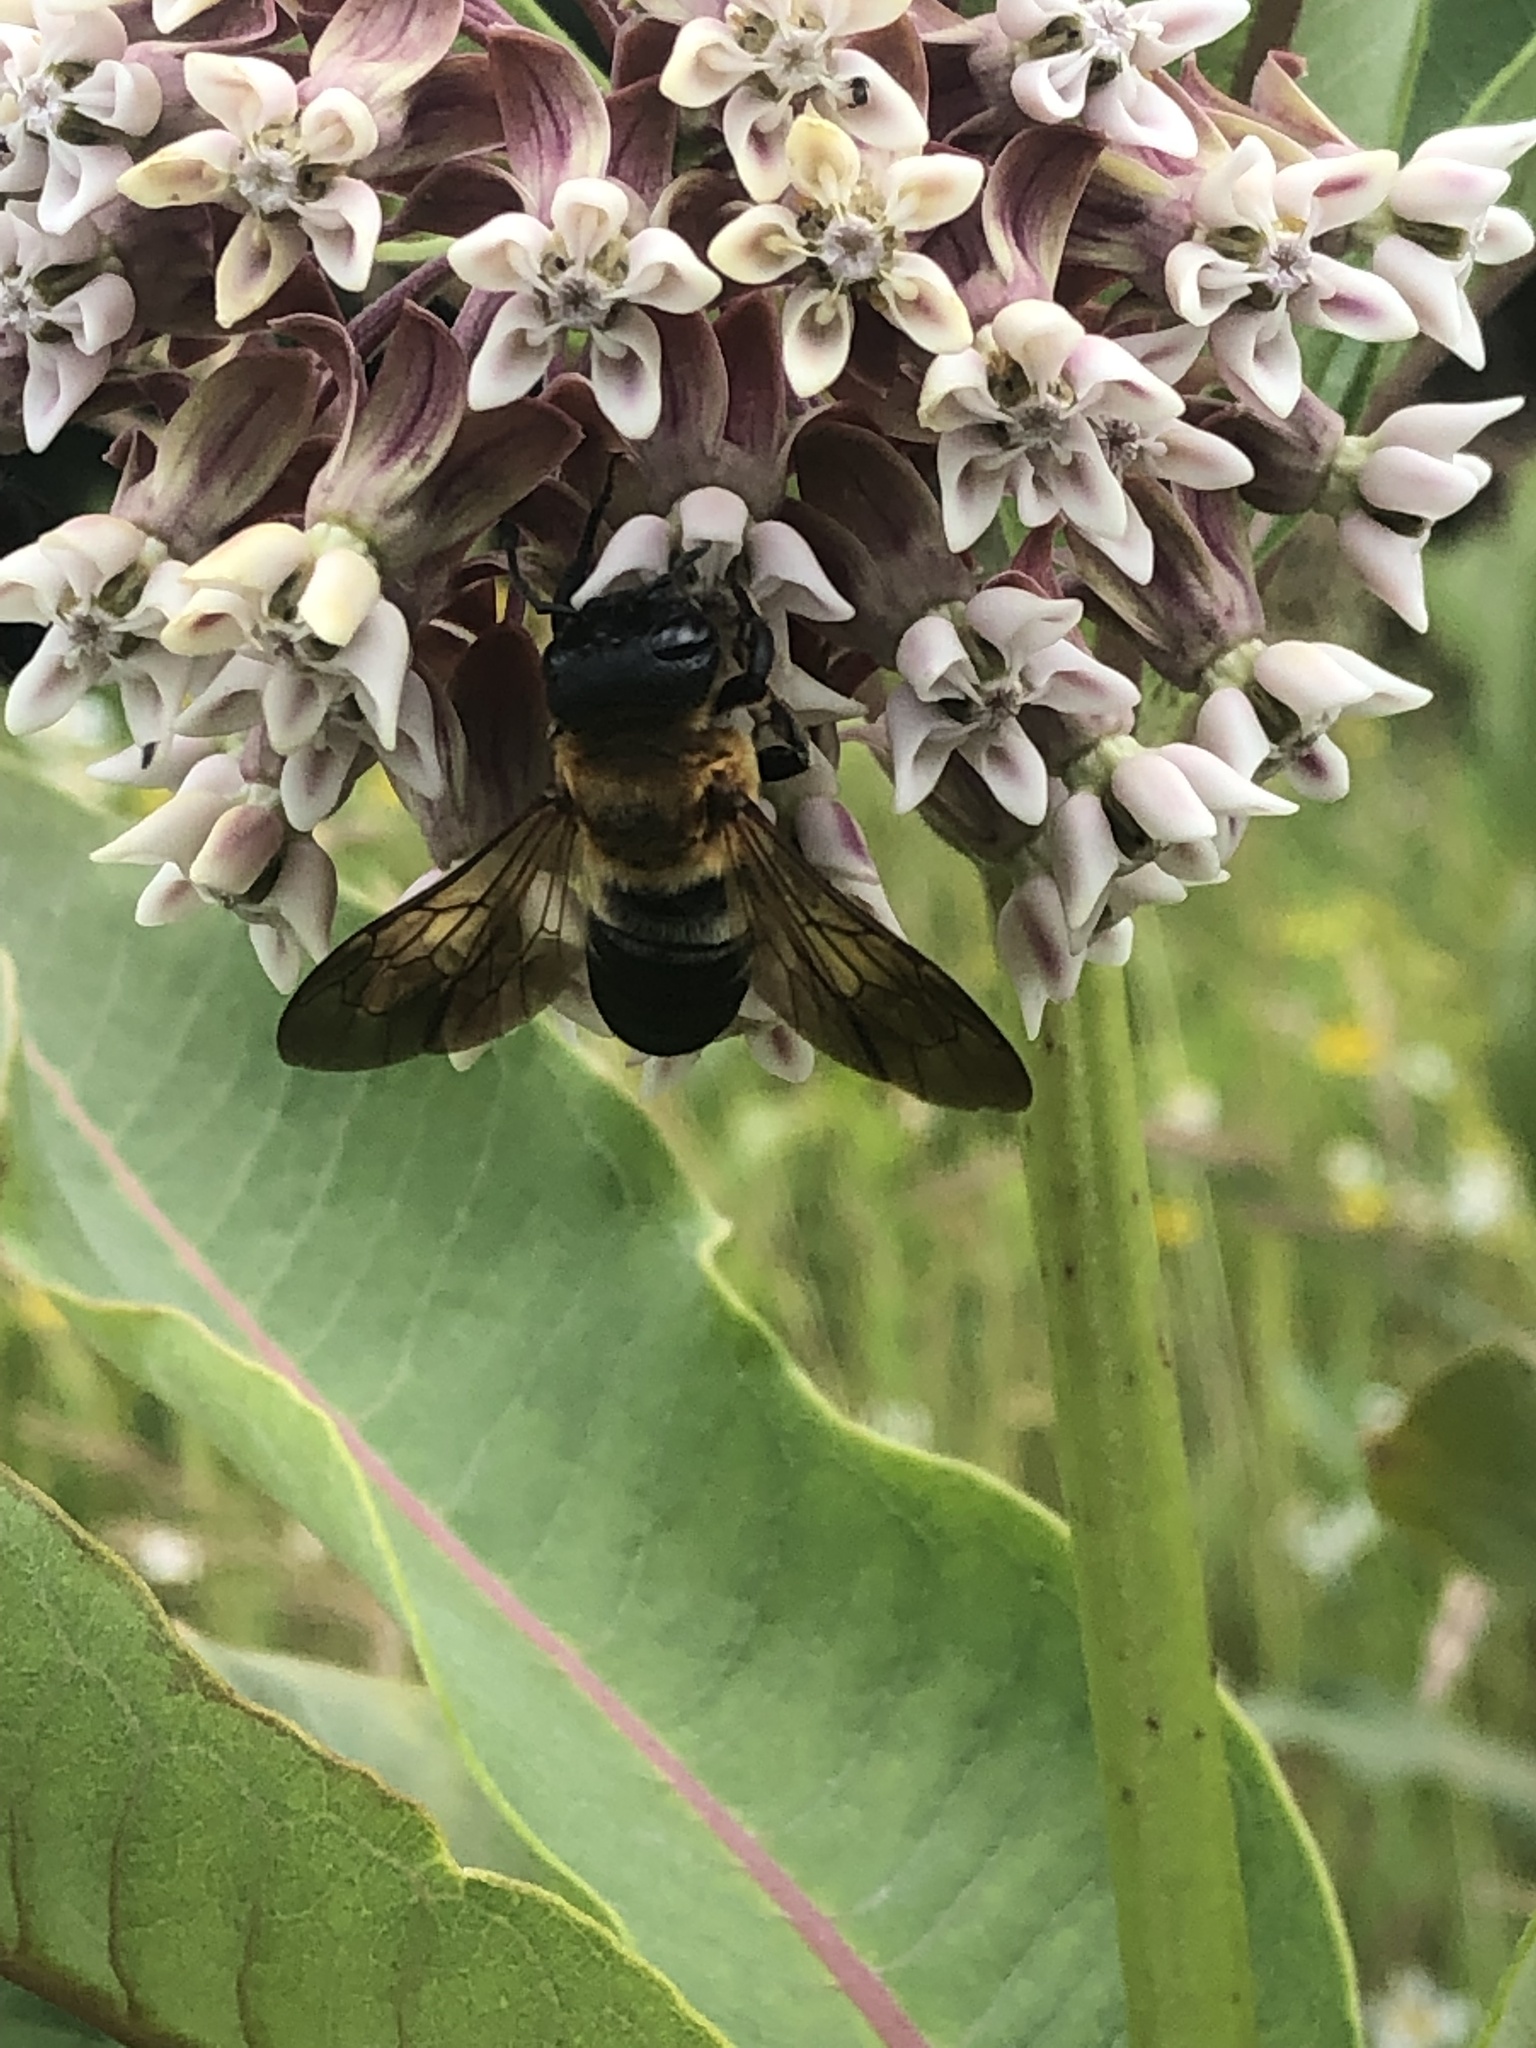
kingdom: Animalia
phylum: Arthropoda
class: Insecta
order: Hymenoptera
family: Megachilidae
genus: Megachile
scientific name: Megachile sculpturalis
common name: Sculptured resin bee
